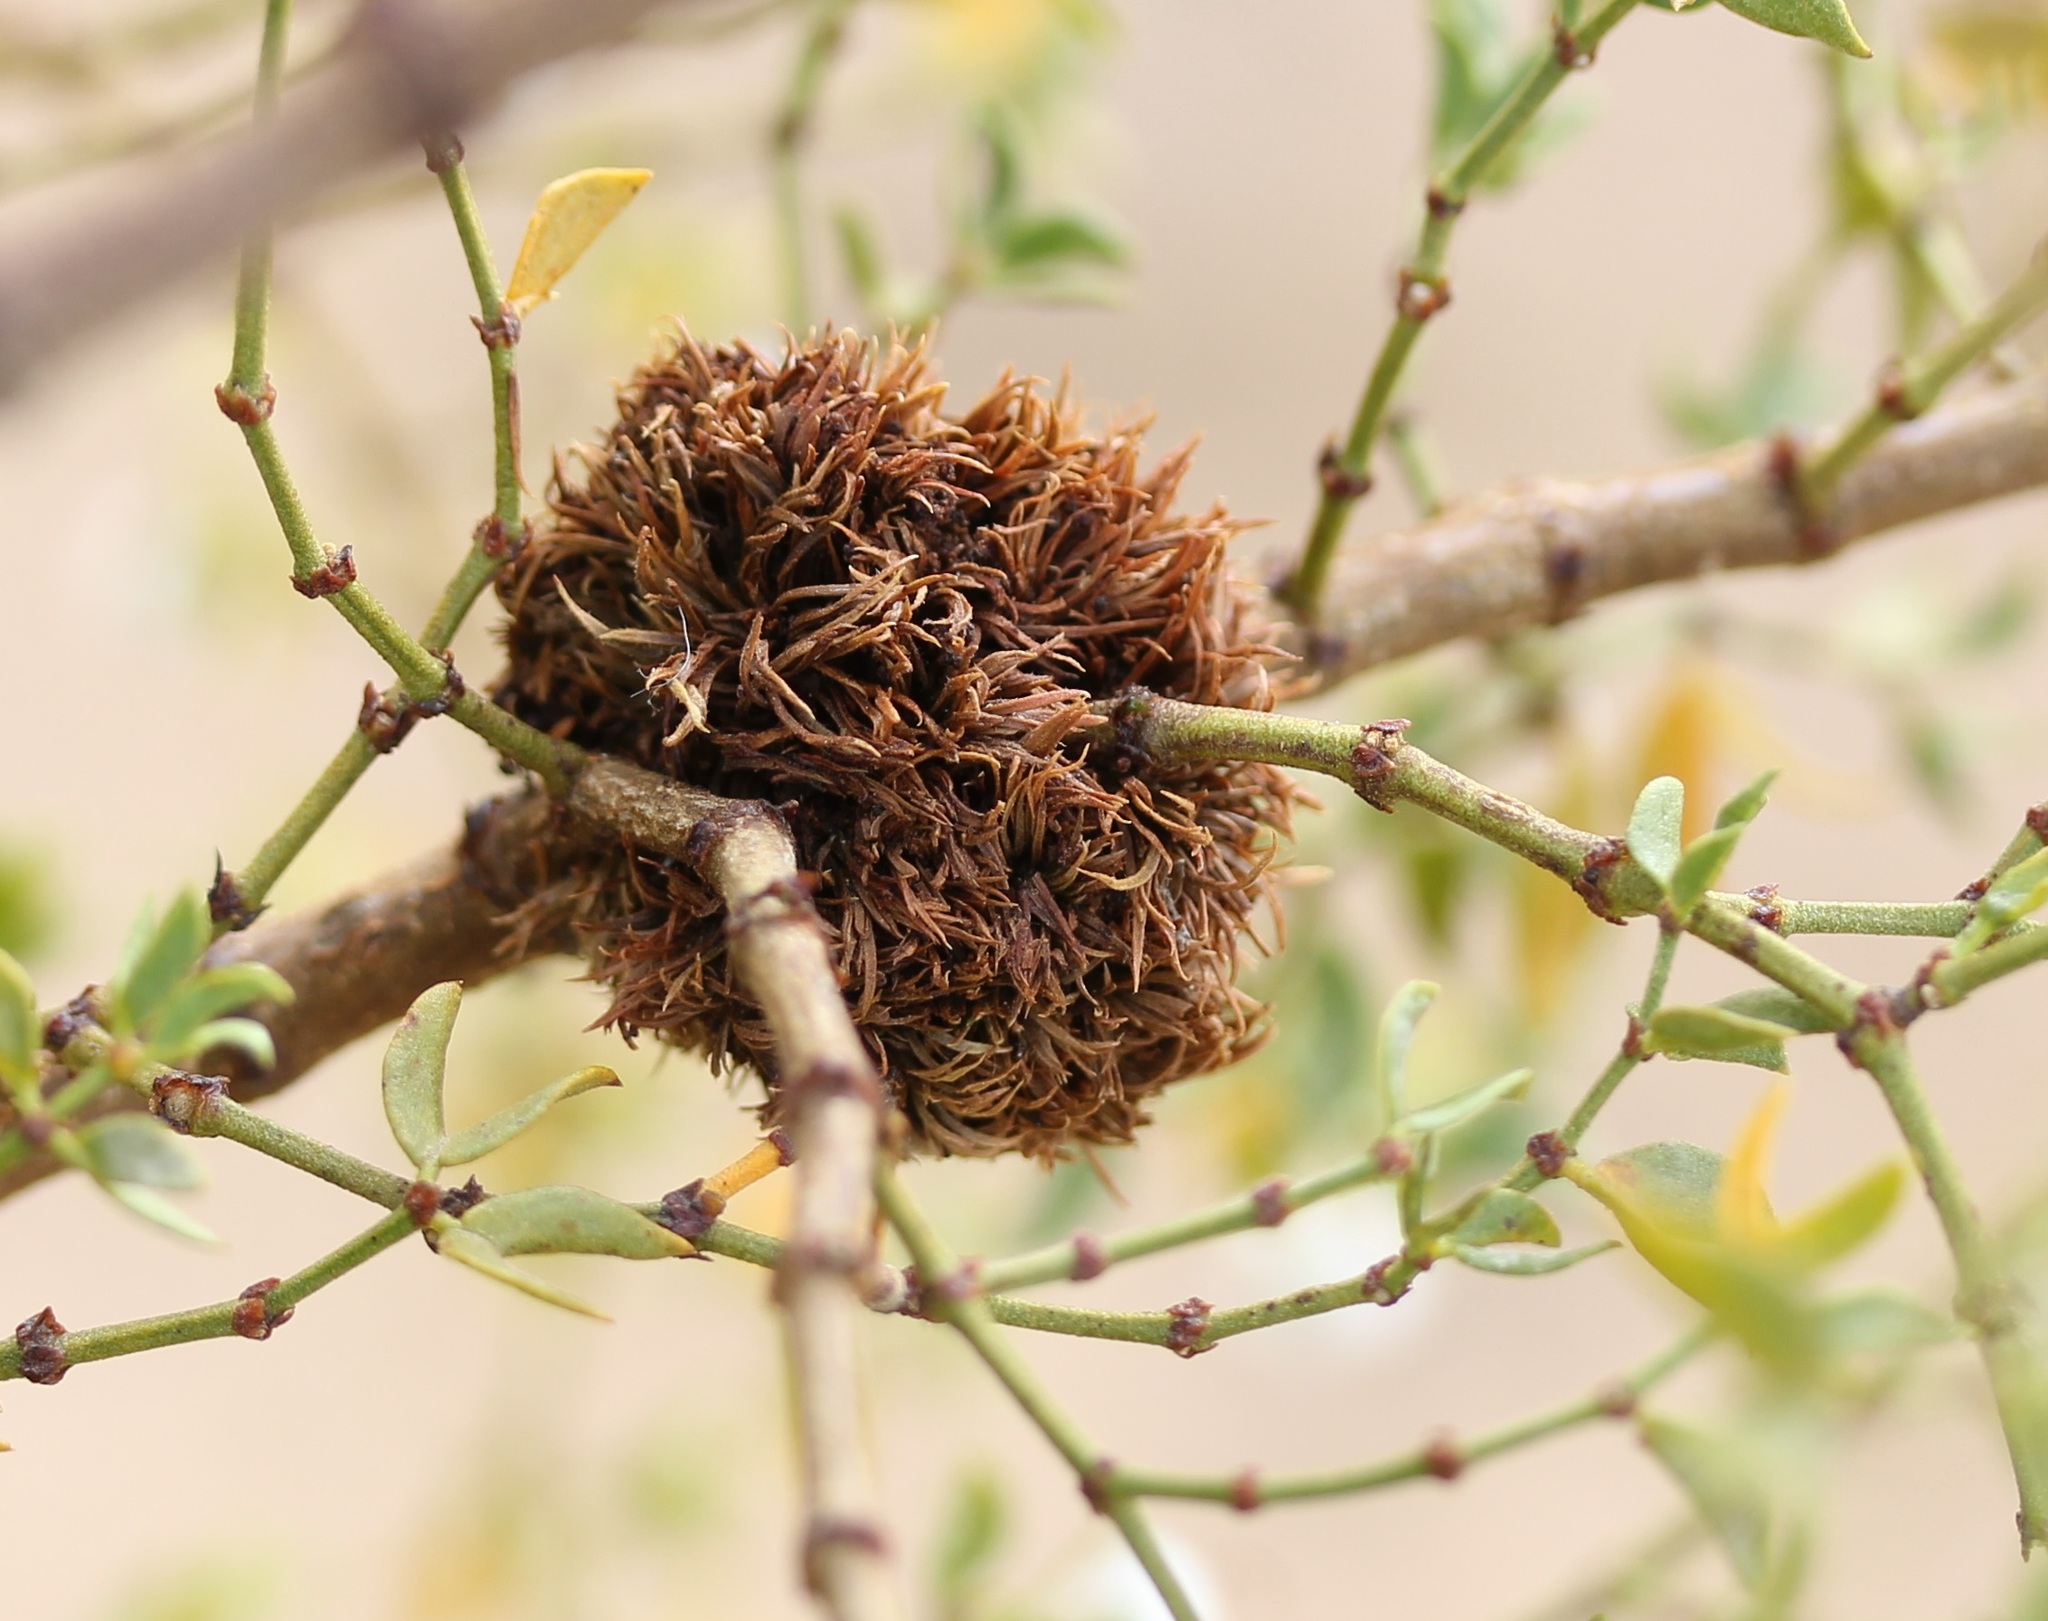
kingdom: Animalia
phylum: Arthropoda
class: Insecta
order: Diptera
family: Cecidomyiidae
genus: Asphondylia
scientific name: Asphondylia auripila
